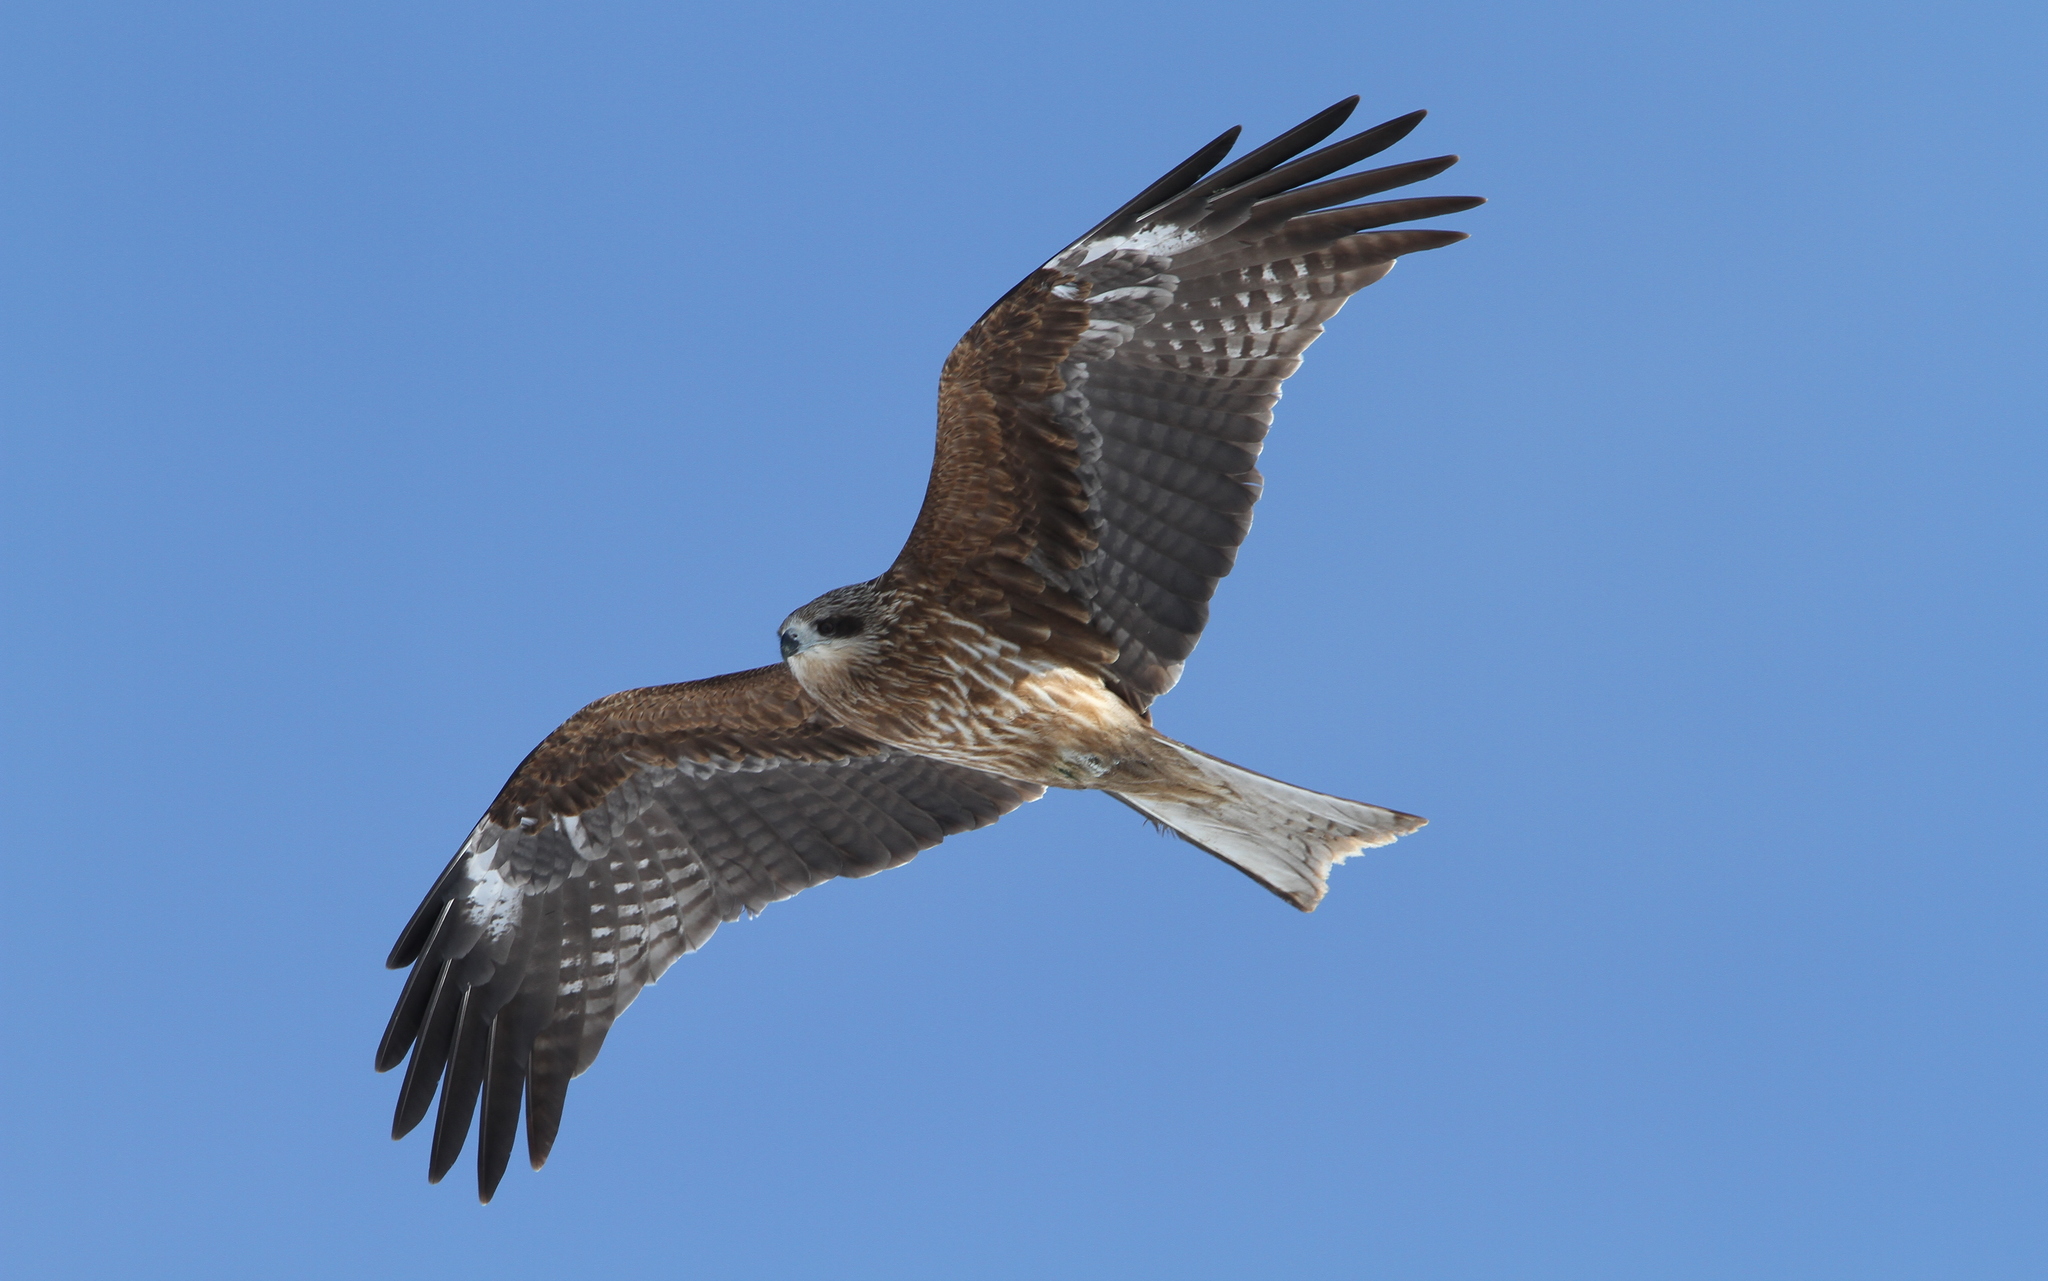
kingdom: Animalia
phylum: Chordata
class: Aves
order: Accipitriformes
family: Accipitridae
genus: Milvus
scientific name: Milvus migrans
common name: Black kite
